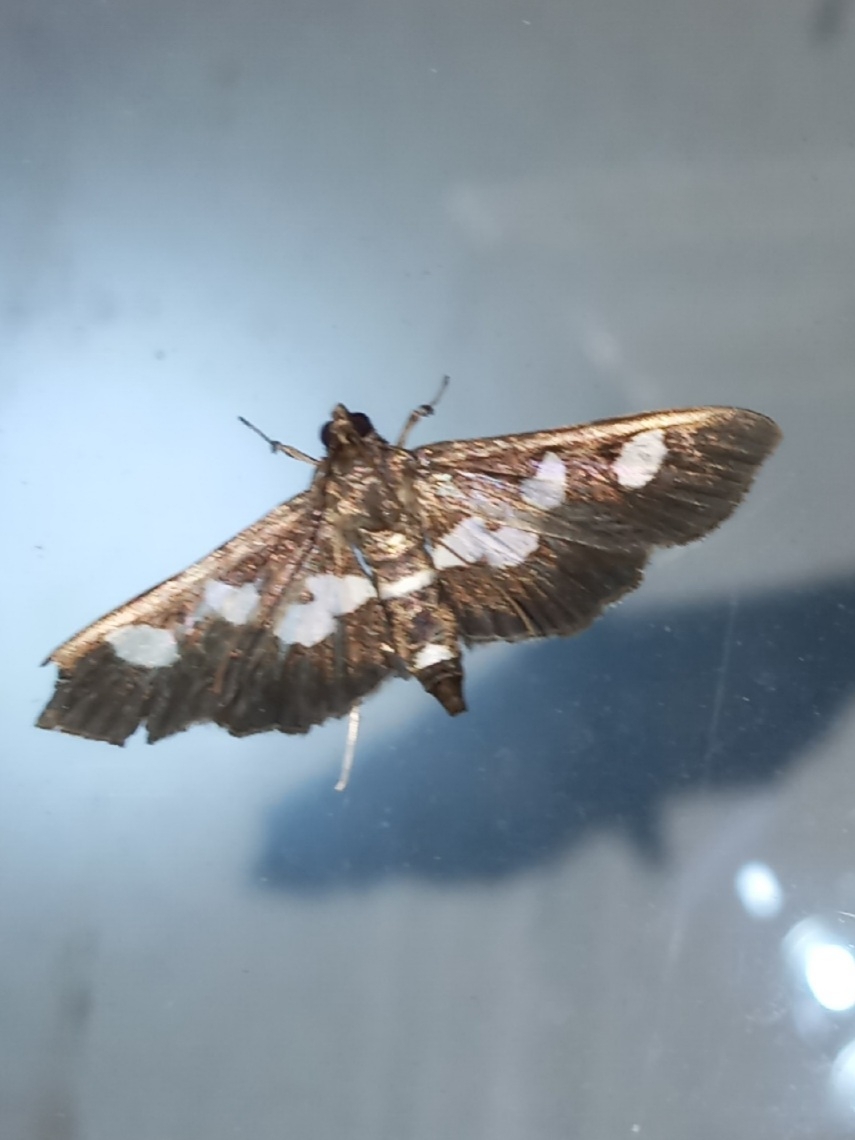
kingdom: Animalia
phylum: Arthropoda
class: Insecta
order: Lepidoptera
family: Crambidae
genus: Desmia
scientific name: Desmia
